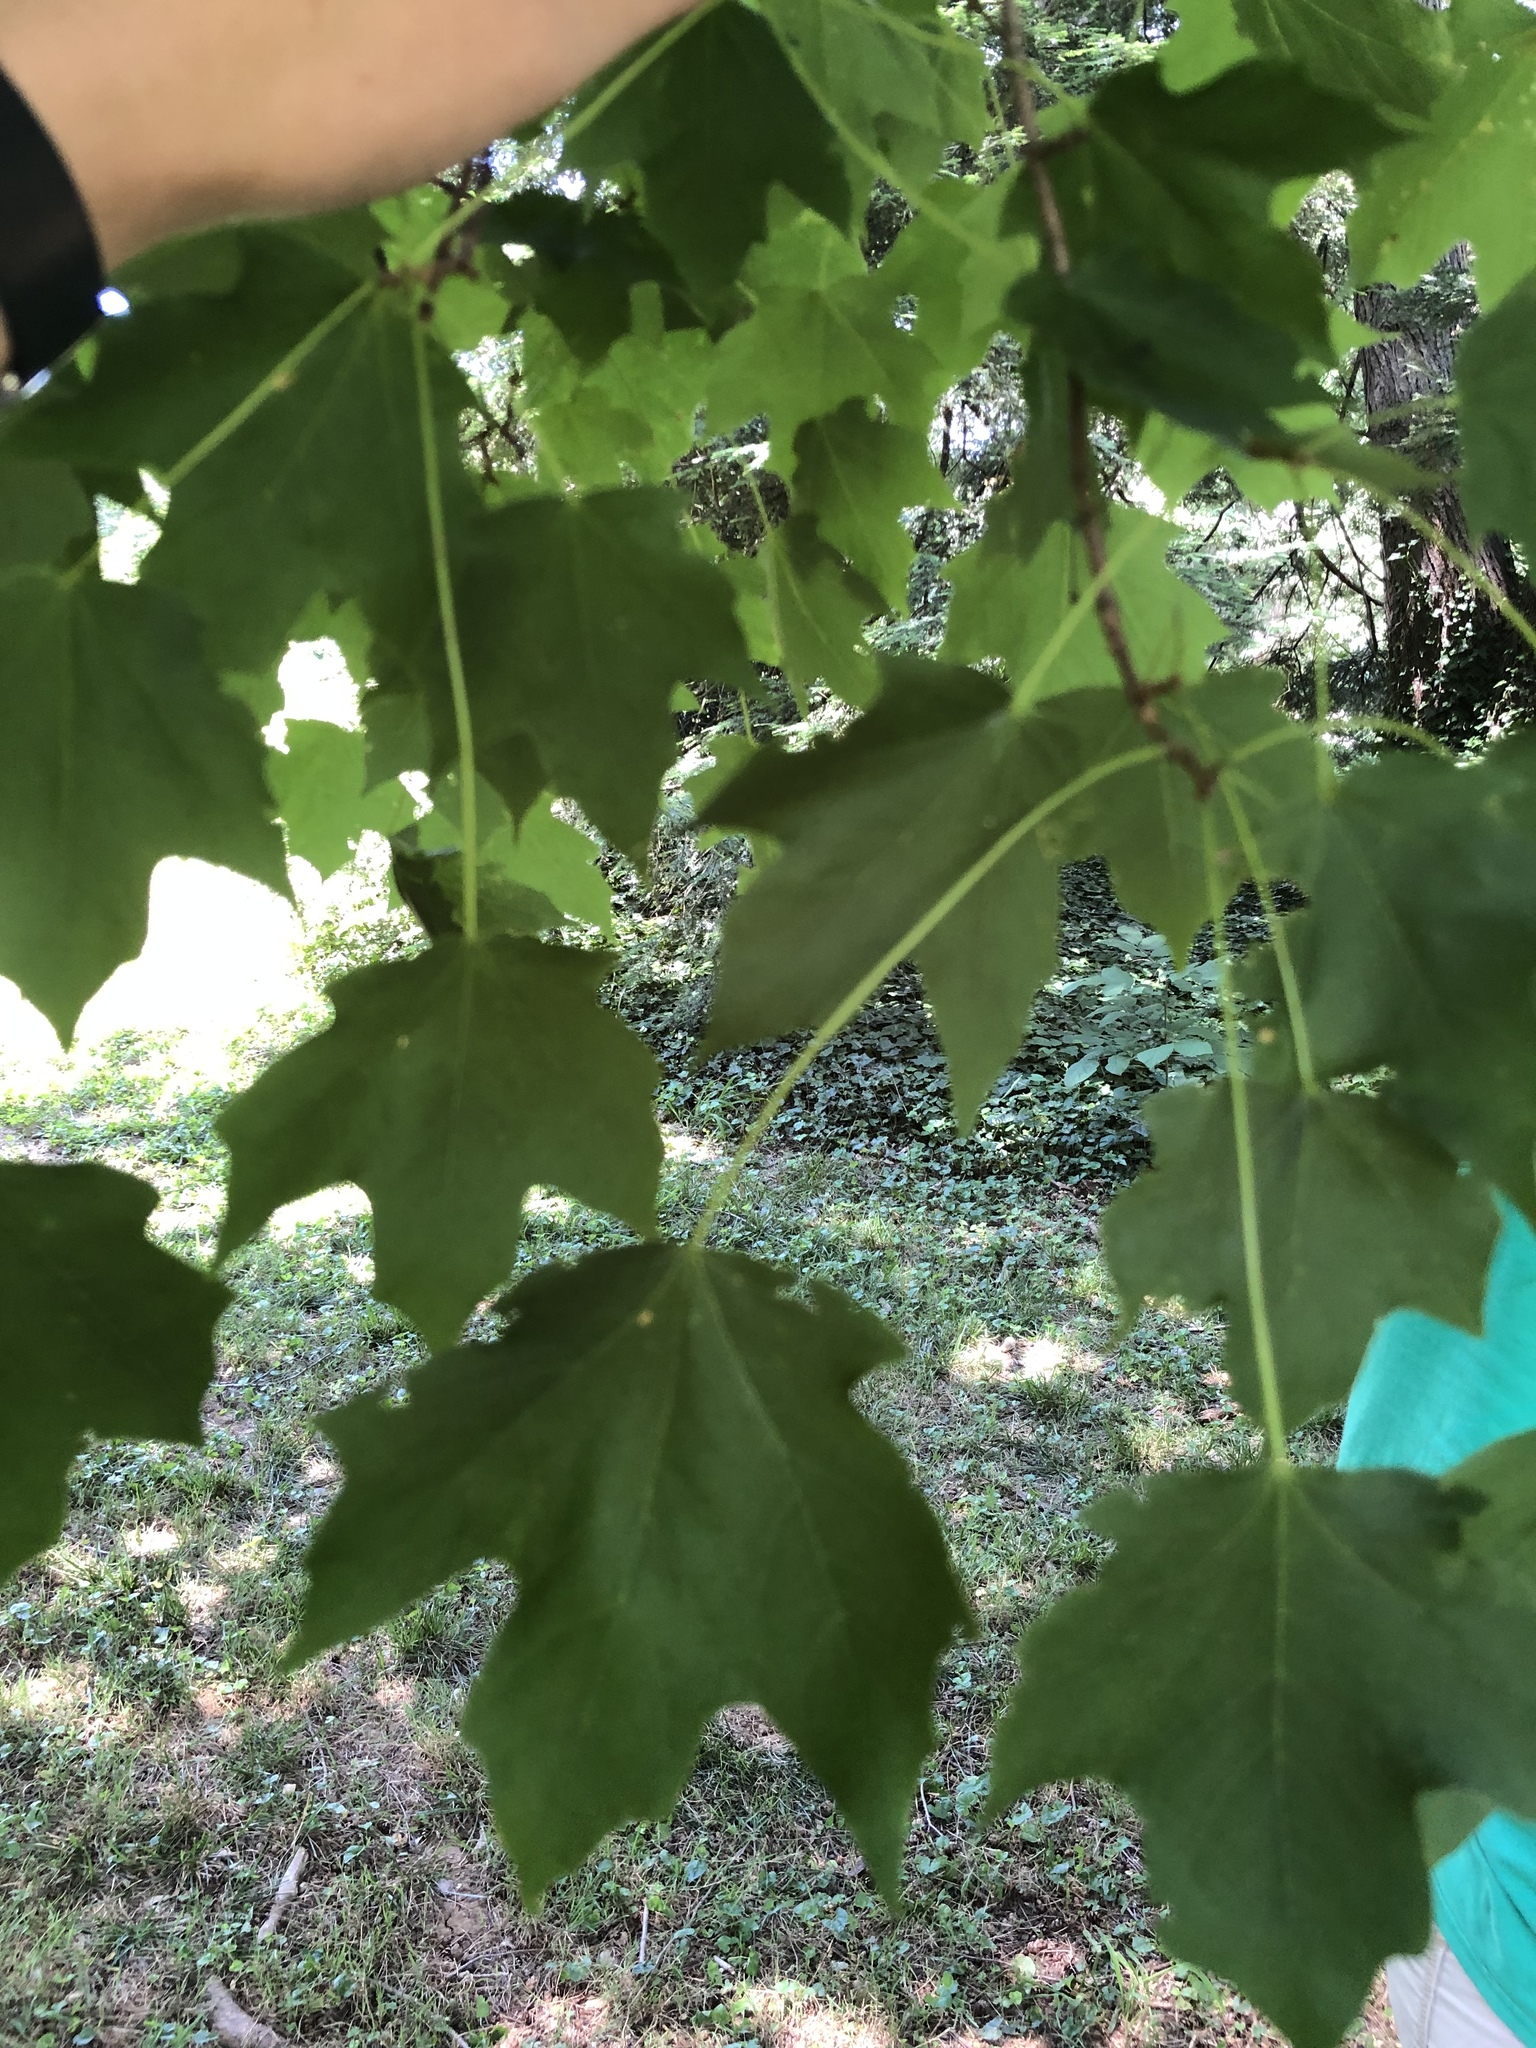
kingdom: Plantae
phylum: Tracheophyta
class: Magnoliopsida
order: Sapindales
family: Sapindaceae
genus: Acer
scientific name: Acer saccharum
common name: Sugar maple
